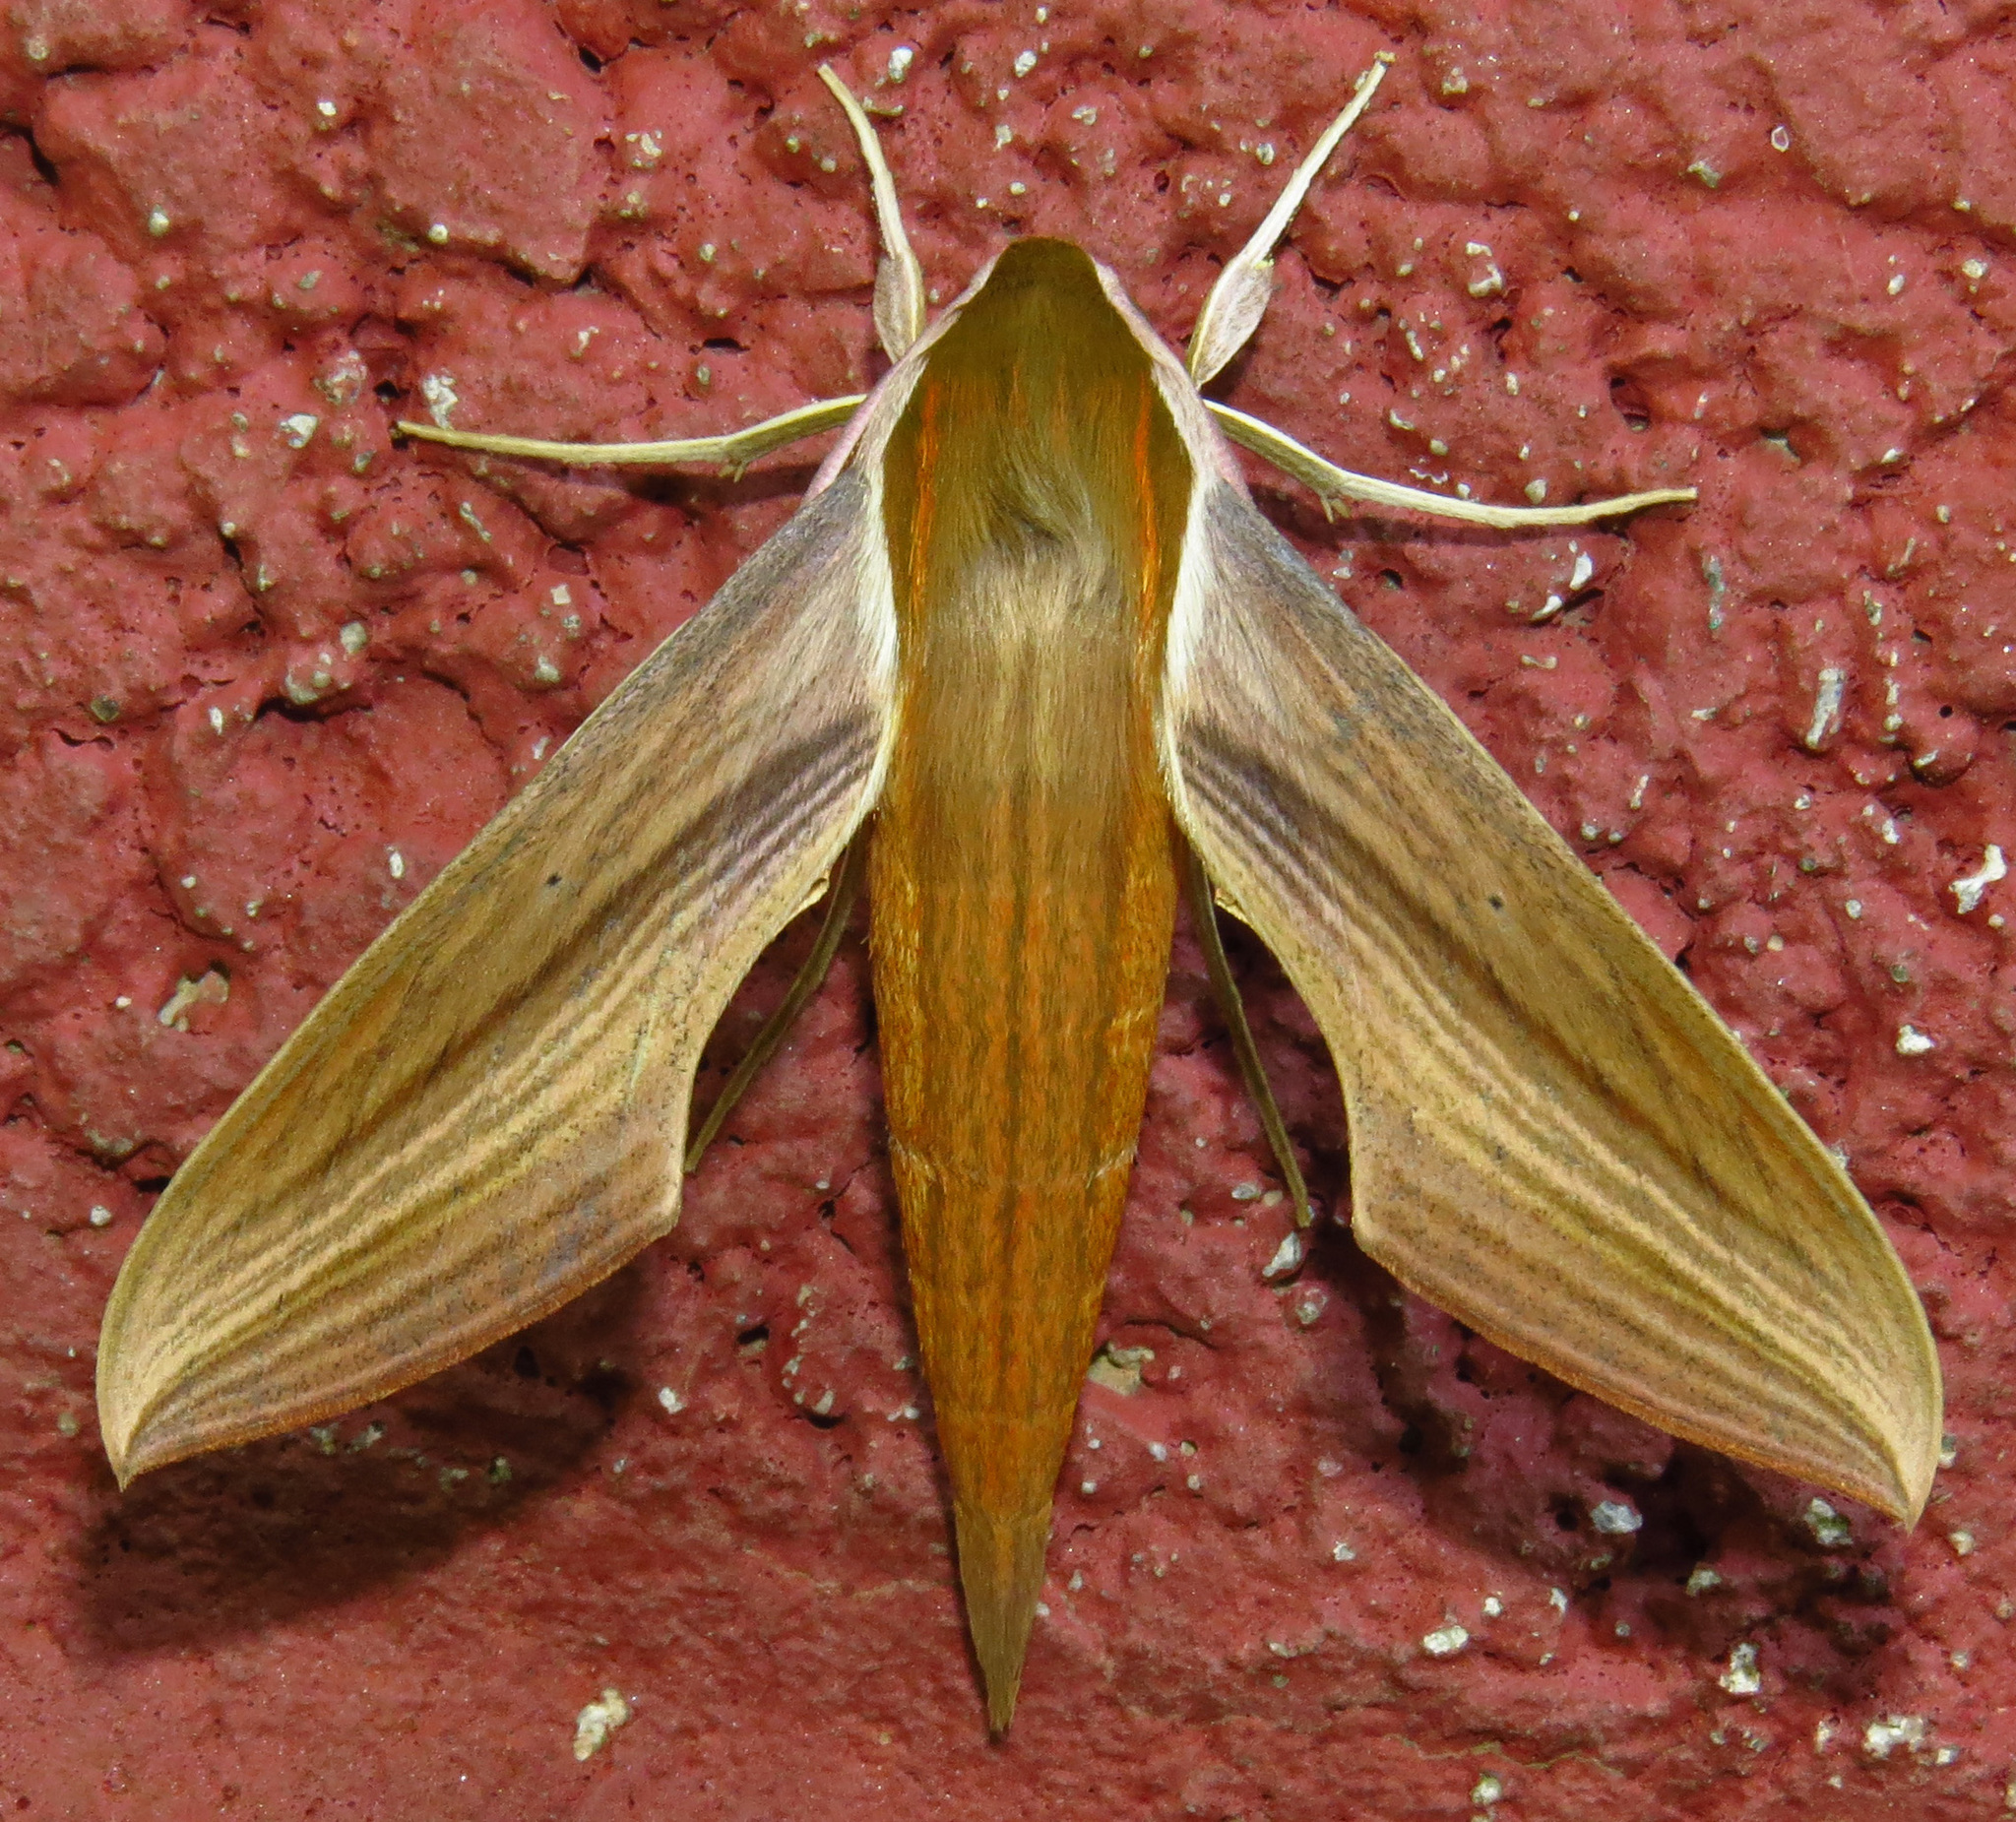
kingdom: Animalia
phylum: Arthropoda
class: Insecta
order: Lepidoptera
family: Sphingidae
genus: Xylophanes
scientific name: Xylophanes tersa
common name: Tersa sphinx
